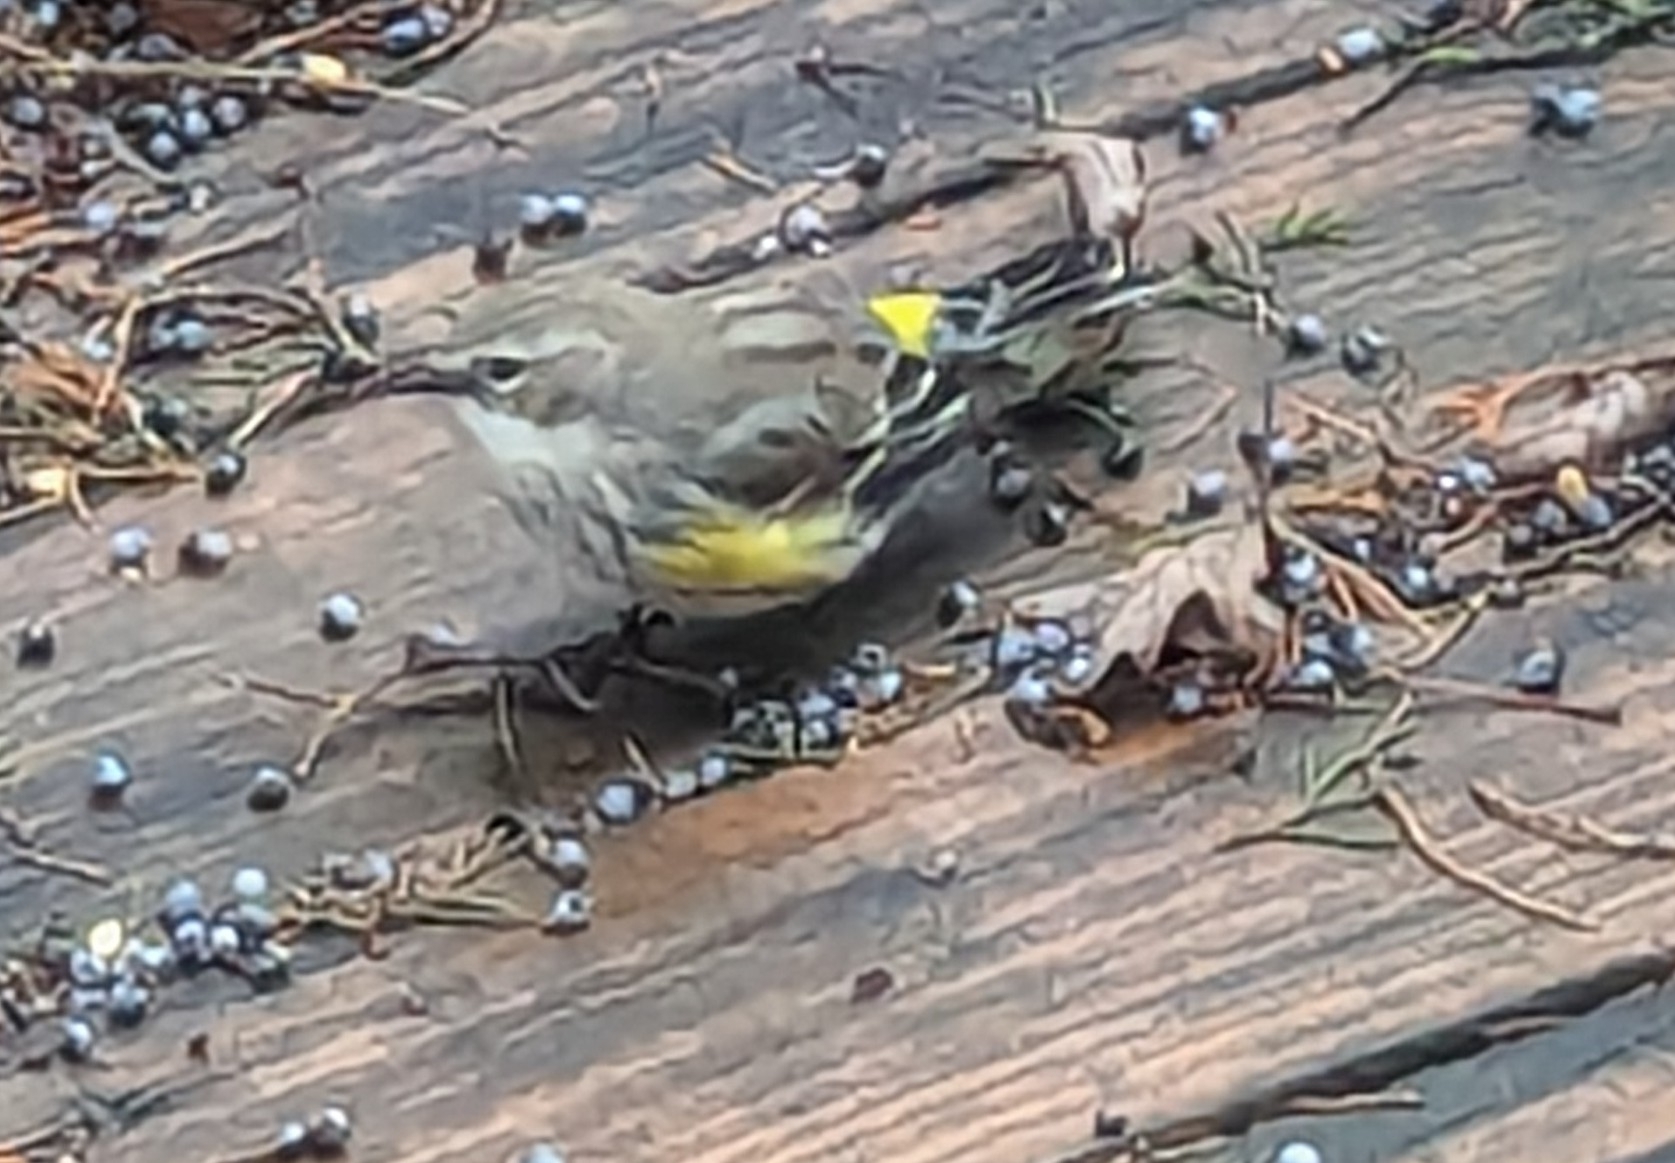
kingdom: Animalia
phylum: Chordata
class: Aves
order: Passeriformes
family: Parulidae
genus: Setophaga
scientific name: Setophaga coronata
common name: Myrtle warbler
